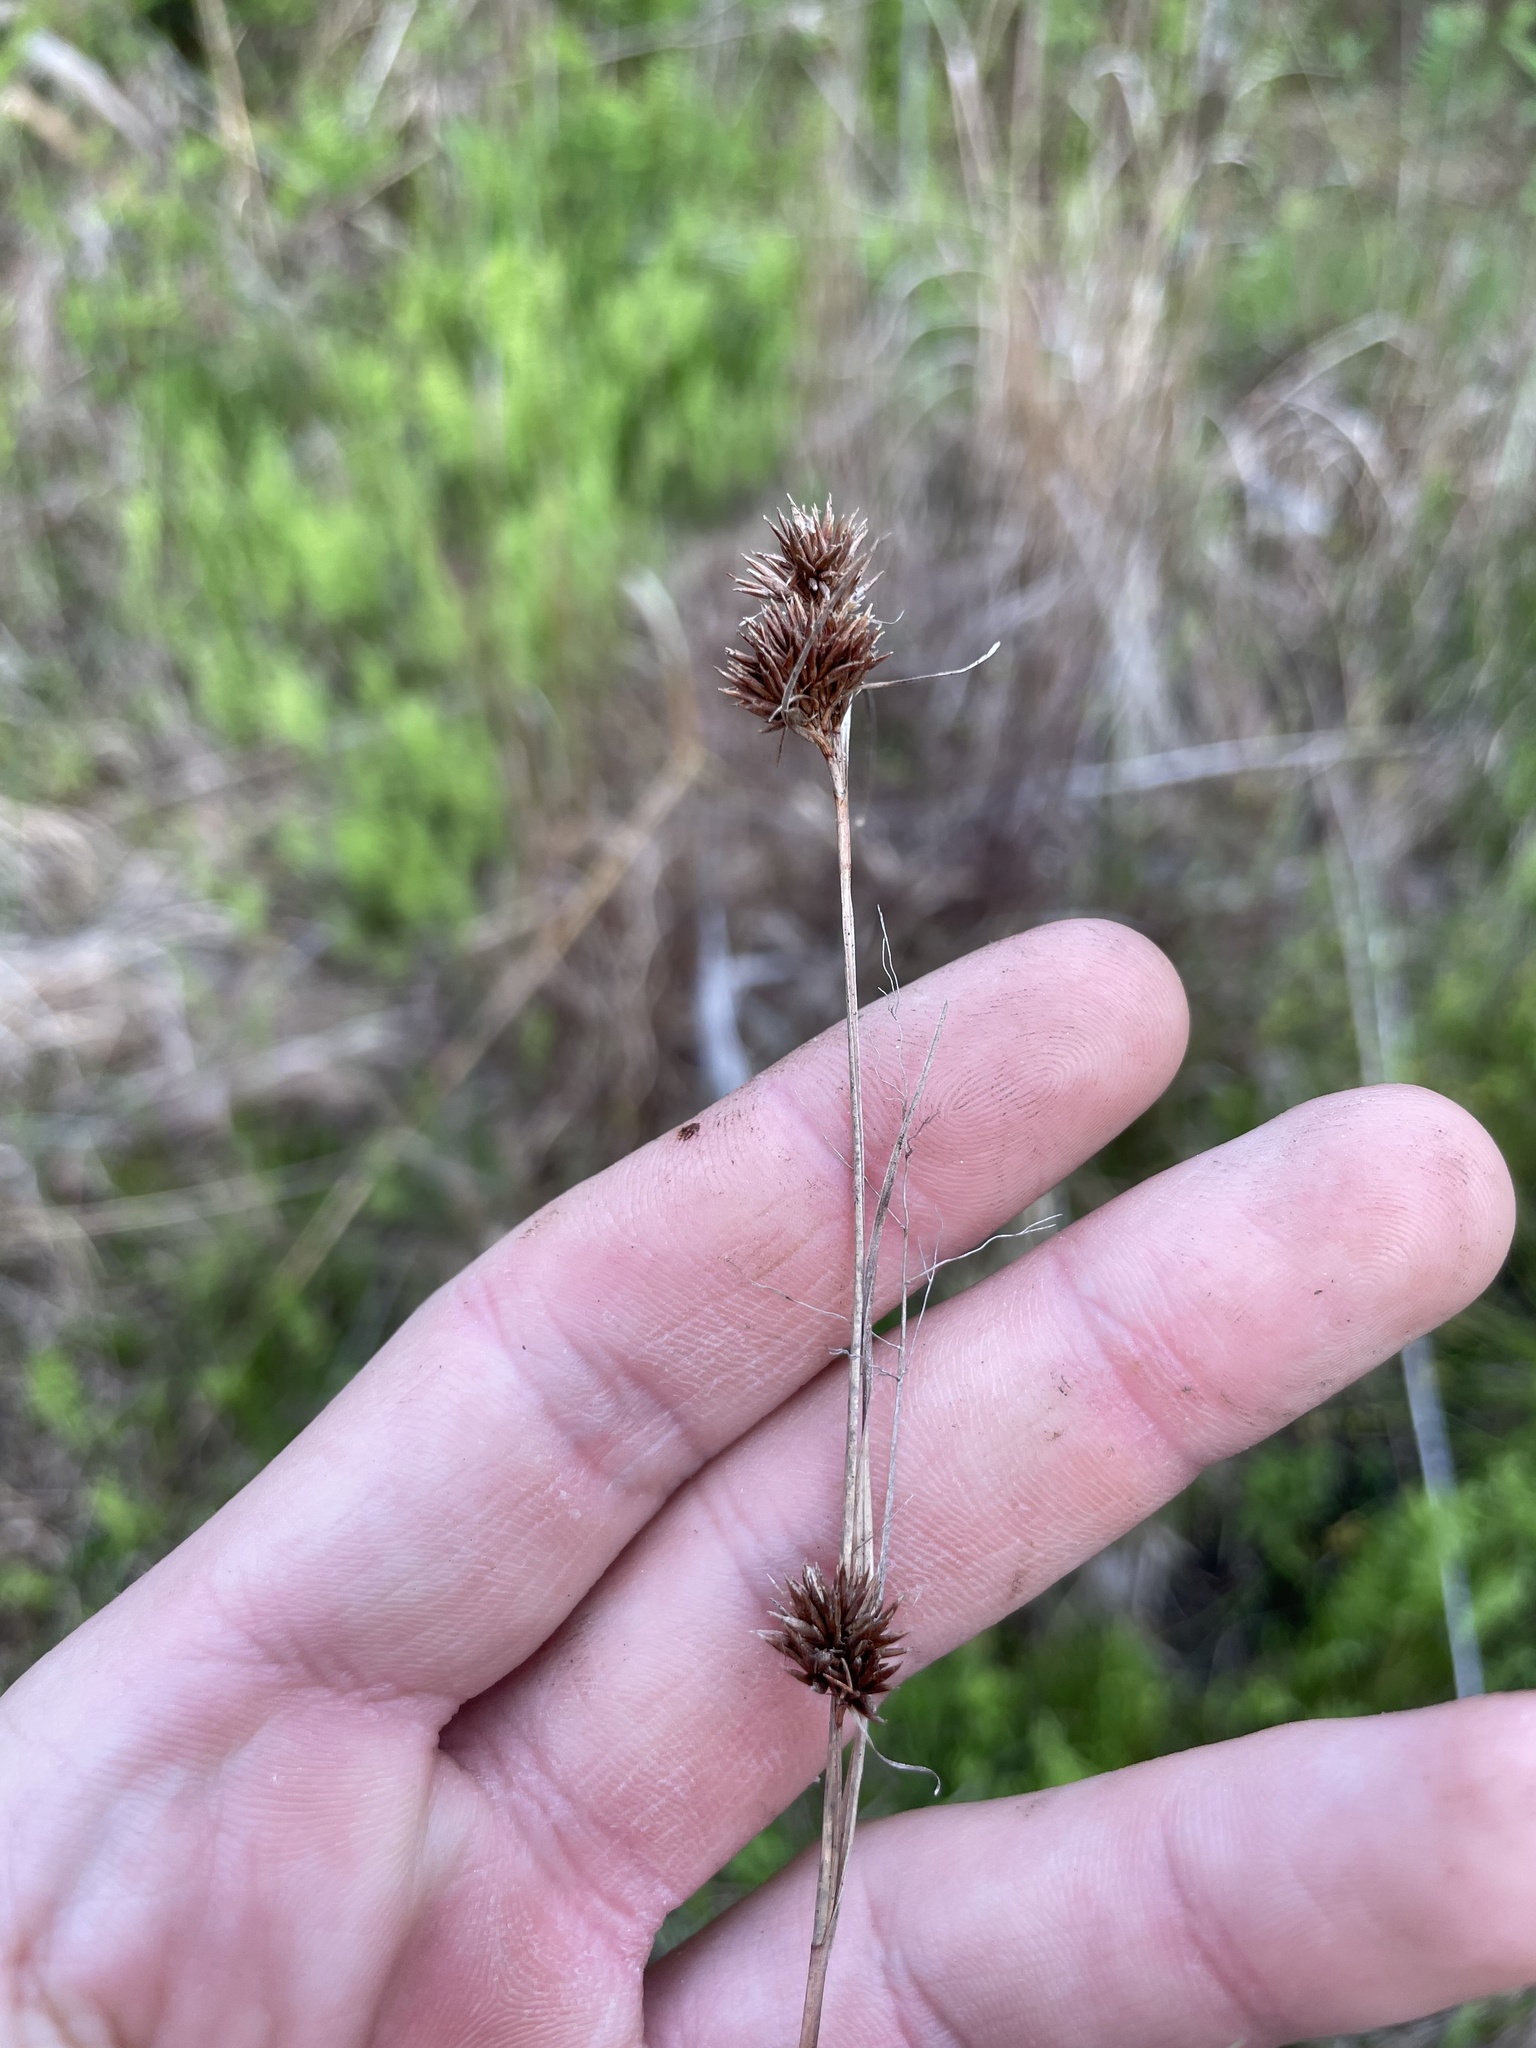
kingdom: Plantae
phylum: Tracheophyta
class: Liliopsida
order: Poales
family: Cyperaceae
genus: Rhynchospora
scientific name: Rhynchospora chalarocephala
